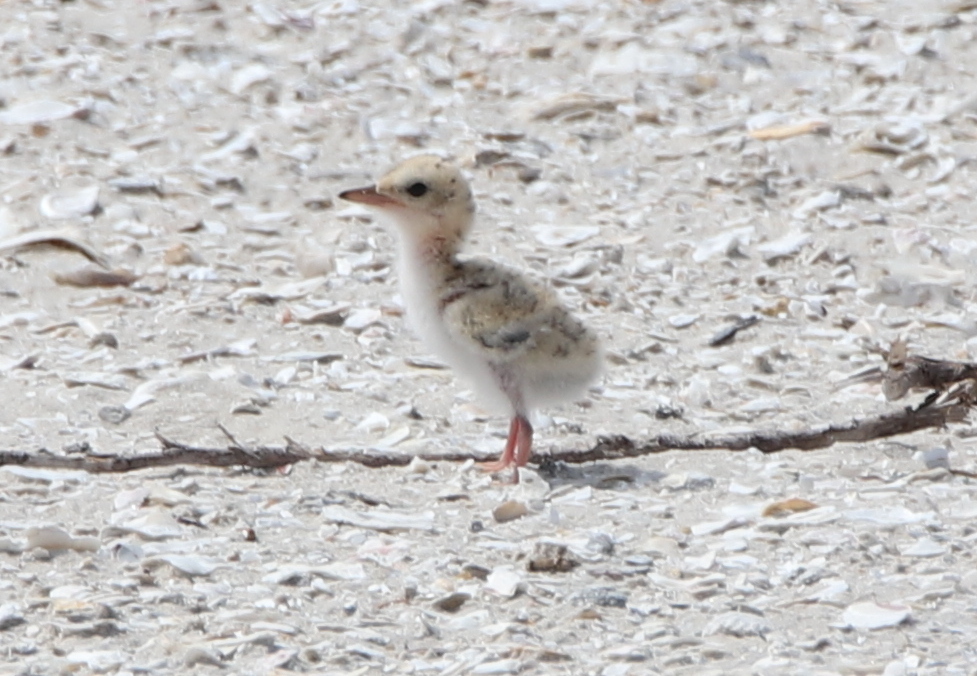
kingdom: Animalia
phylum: Chordata
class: Aves
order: Charadriiformes
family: Laridae
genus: Sternula
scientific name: Sternula antillarum
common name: Least tern
